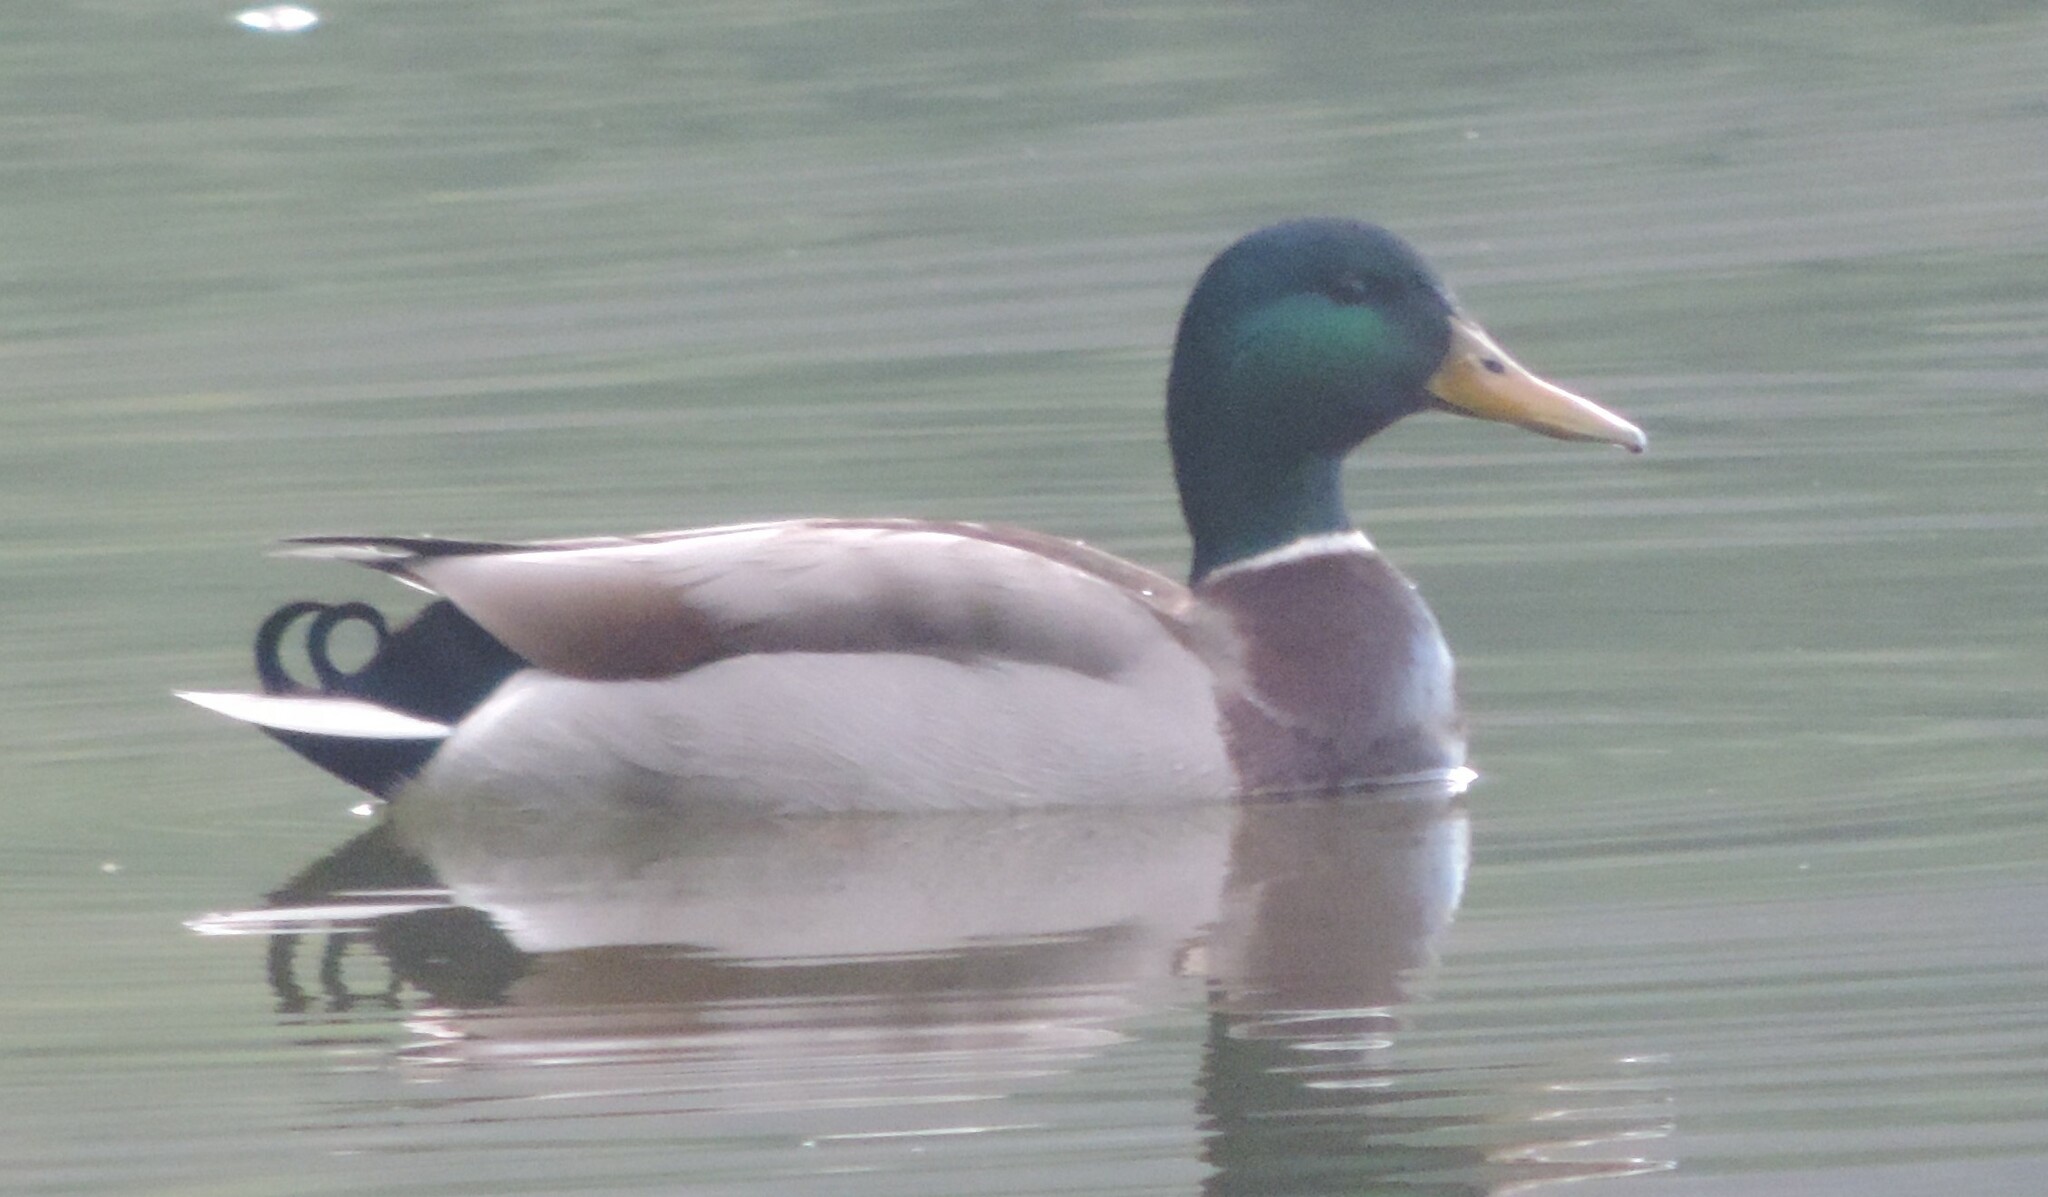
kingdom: Animalia
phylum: Chordata
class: Aves
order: Anseriformes
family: Anatidae
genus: Anas
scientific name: Anas platyrhynchos
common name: Mallard
